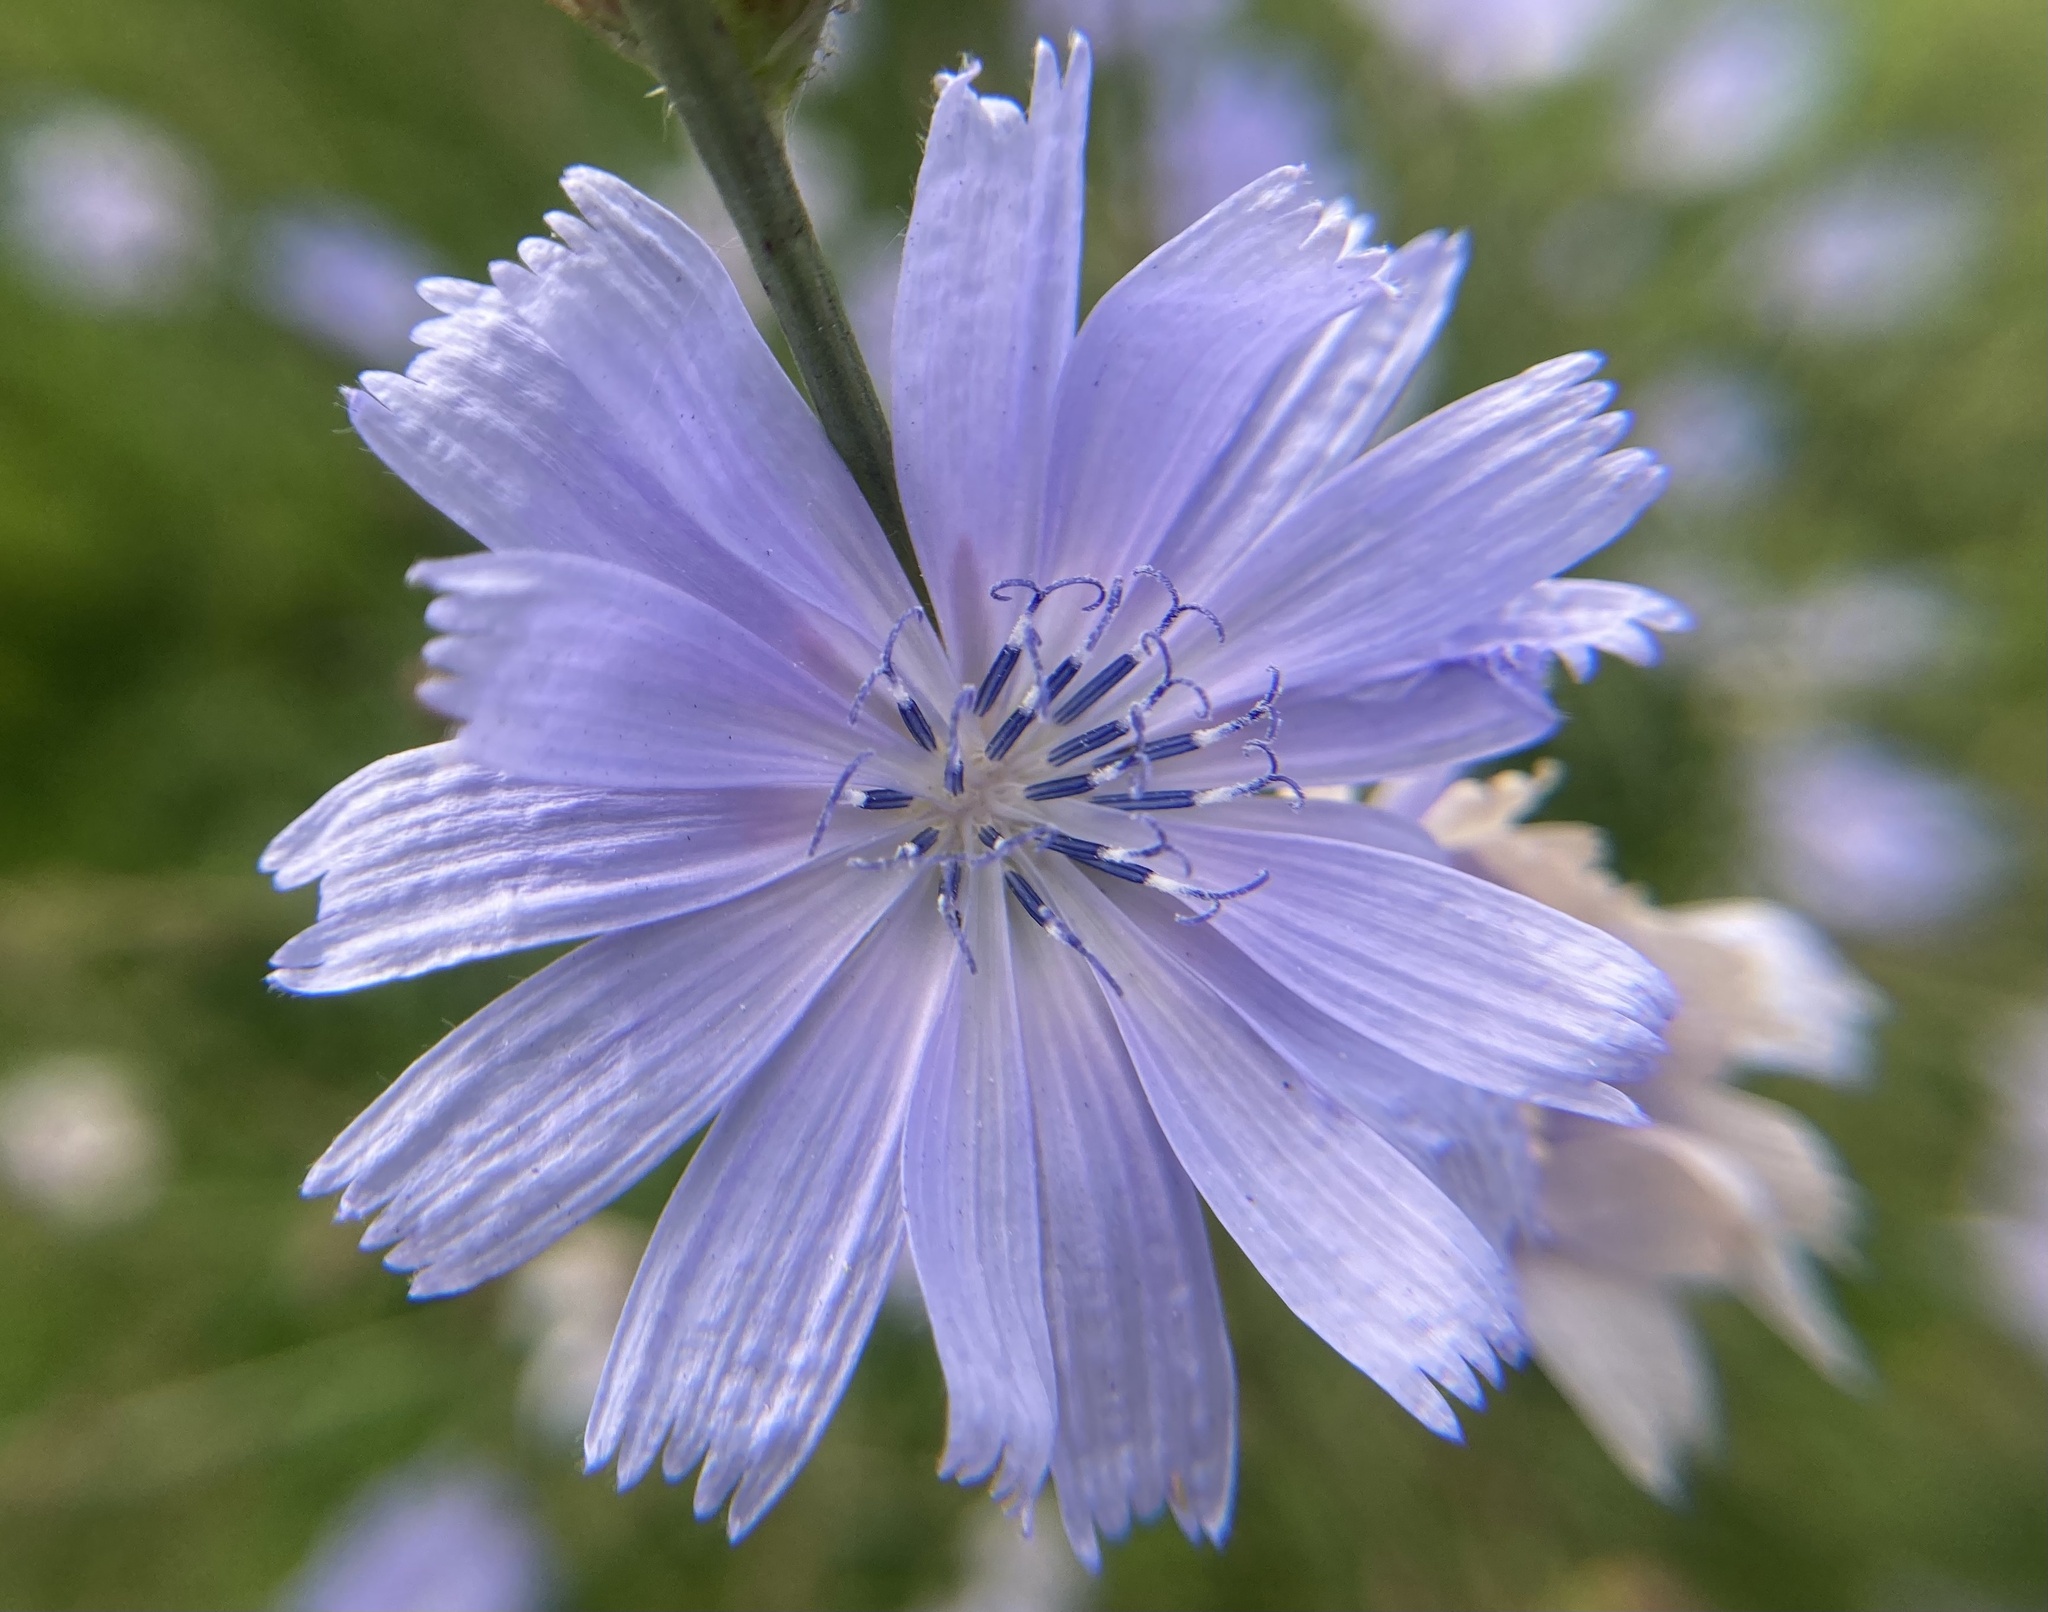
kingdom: Plantae
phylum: Tracheophyta
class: Magnoliopsida
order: Asterales
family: Asteraceae
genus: Cichorium
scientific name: Cichorium intybus
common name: Chicory
